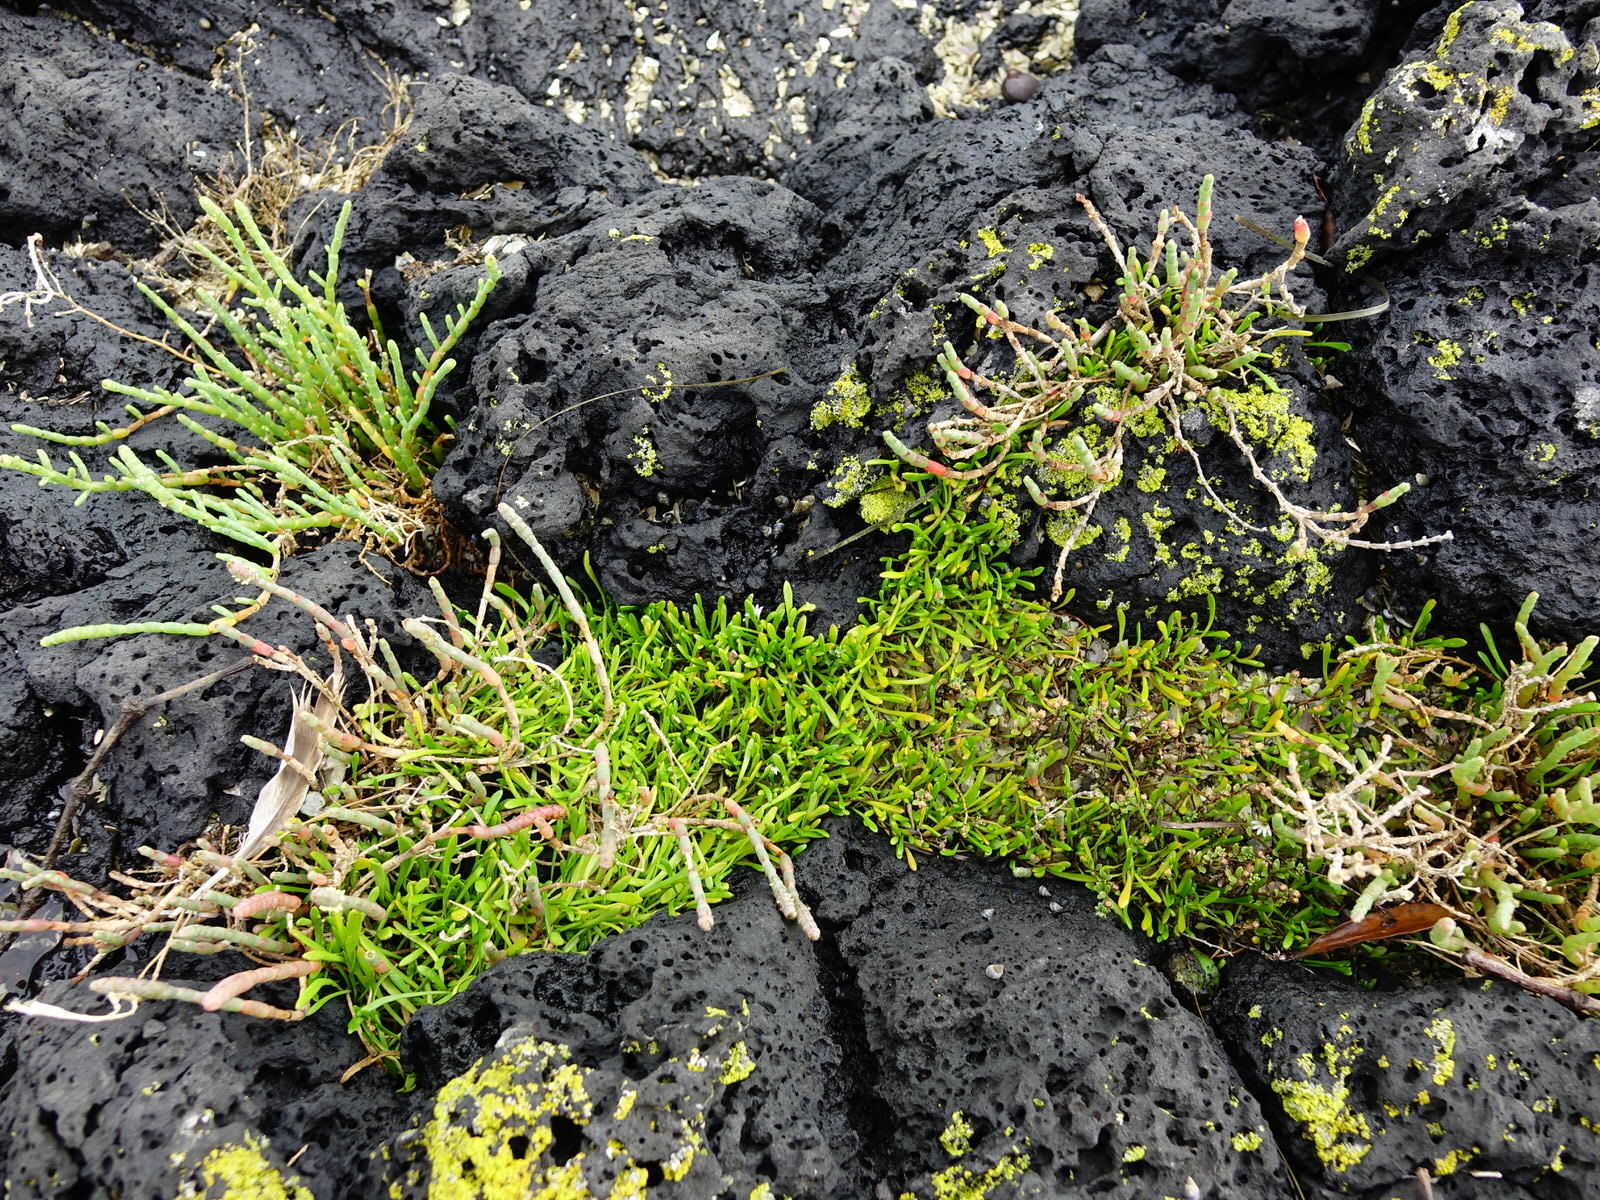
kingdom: Plantae
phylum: Tracheophyta
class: Magnoliopsida
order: Asterales
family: Goodeniaceae
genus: Goodenia
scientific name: Goodenia radicans
